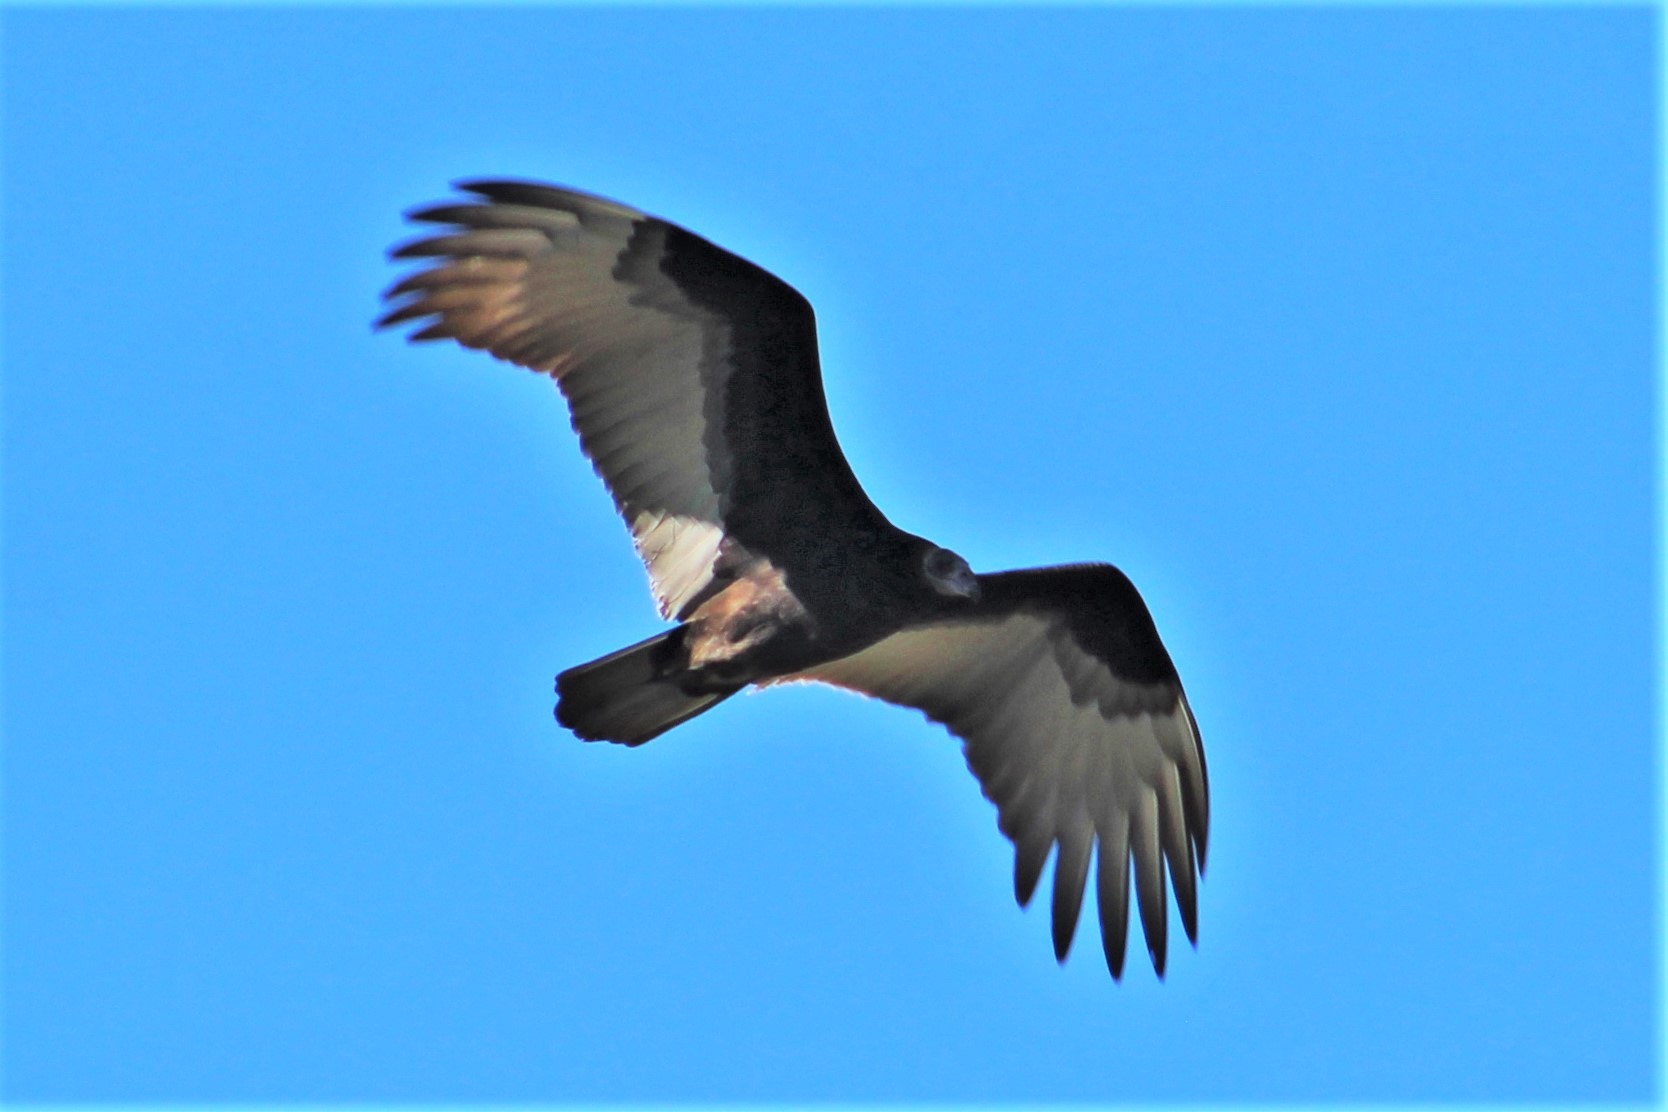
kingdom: Animalia
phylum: Chordata
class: Aves
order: Accipitriformes
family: Cathartidae
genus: Cathartes
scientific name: Cathartes aura
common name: Turkey vulture
